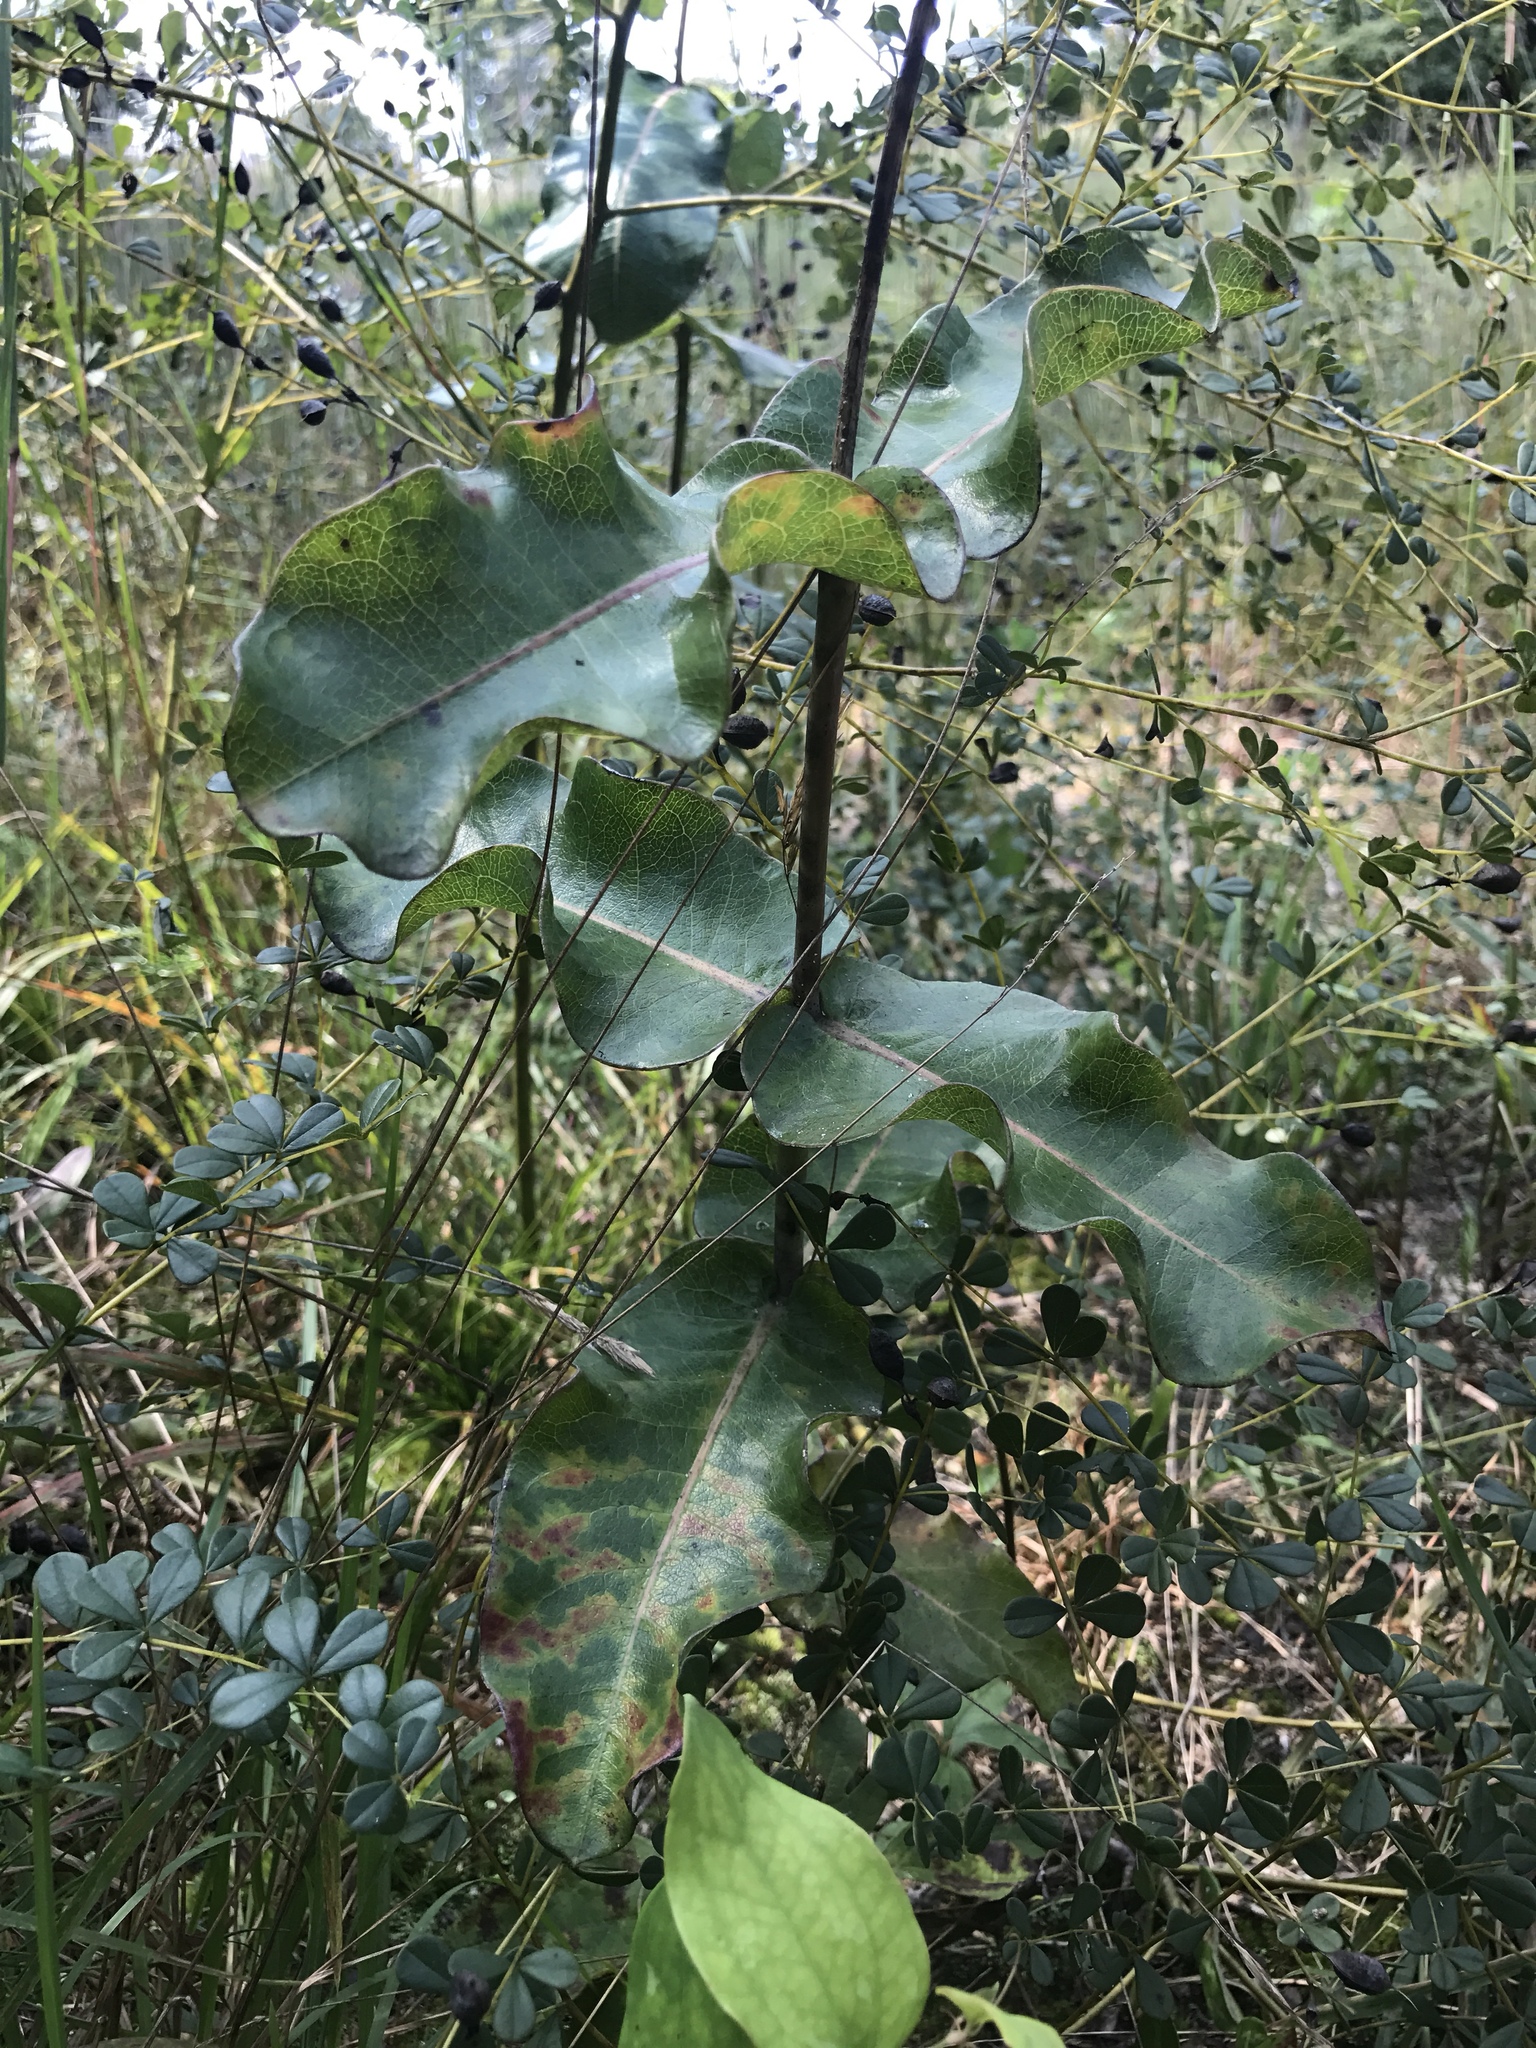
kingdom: Plantae
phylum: Tracheophyta
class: Magnoliopsida
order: Gentianales
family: Apocynaceae
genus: Asclepias
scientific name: Asclepias amplexicaulis
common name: Blunt-leaf milkweed
